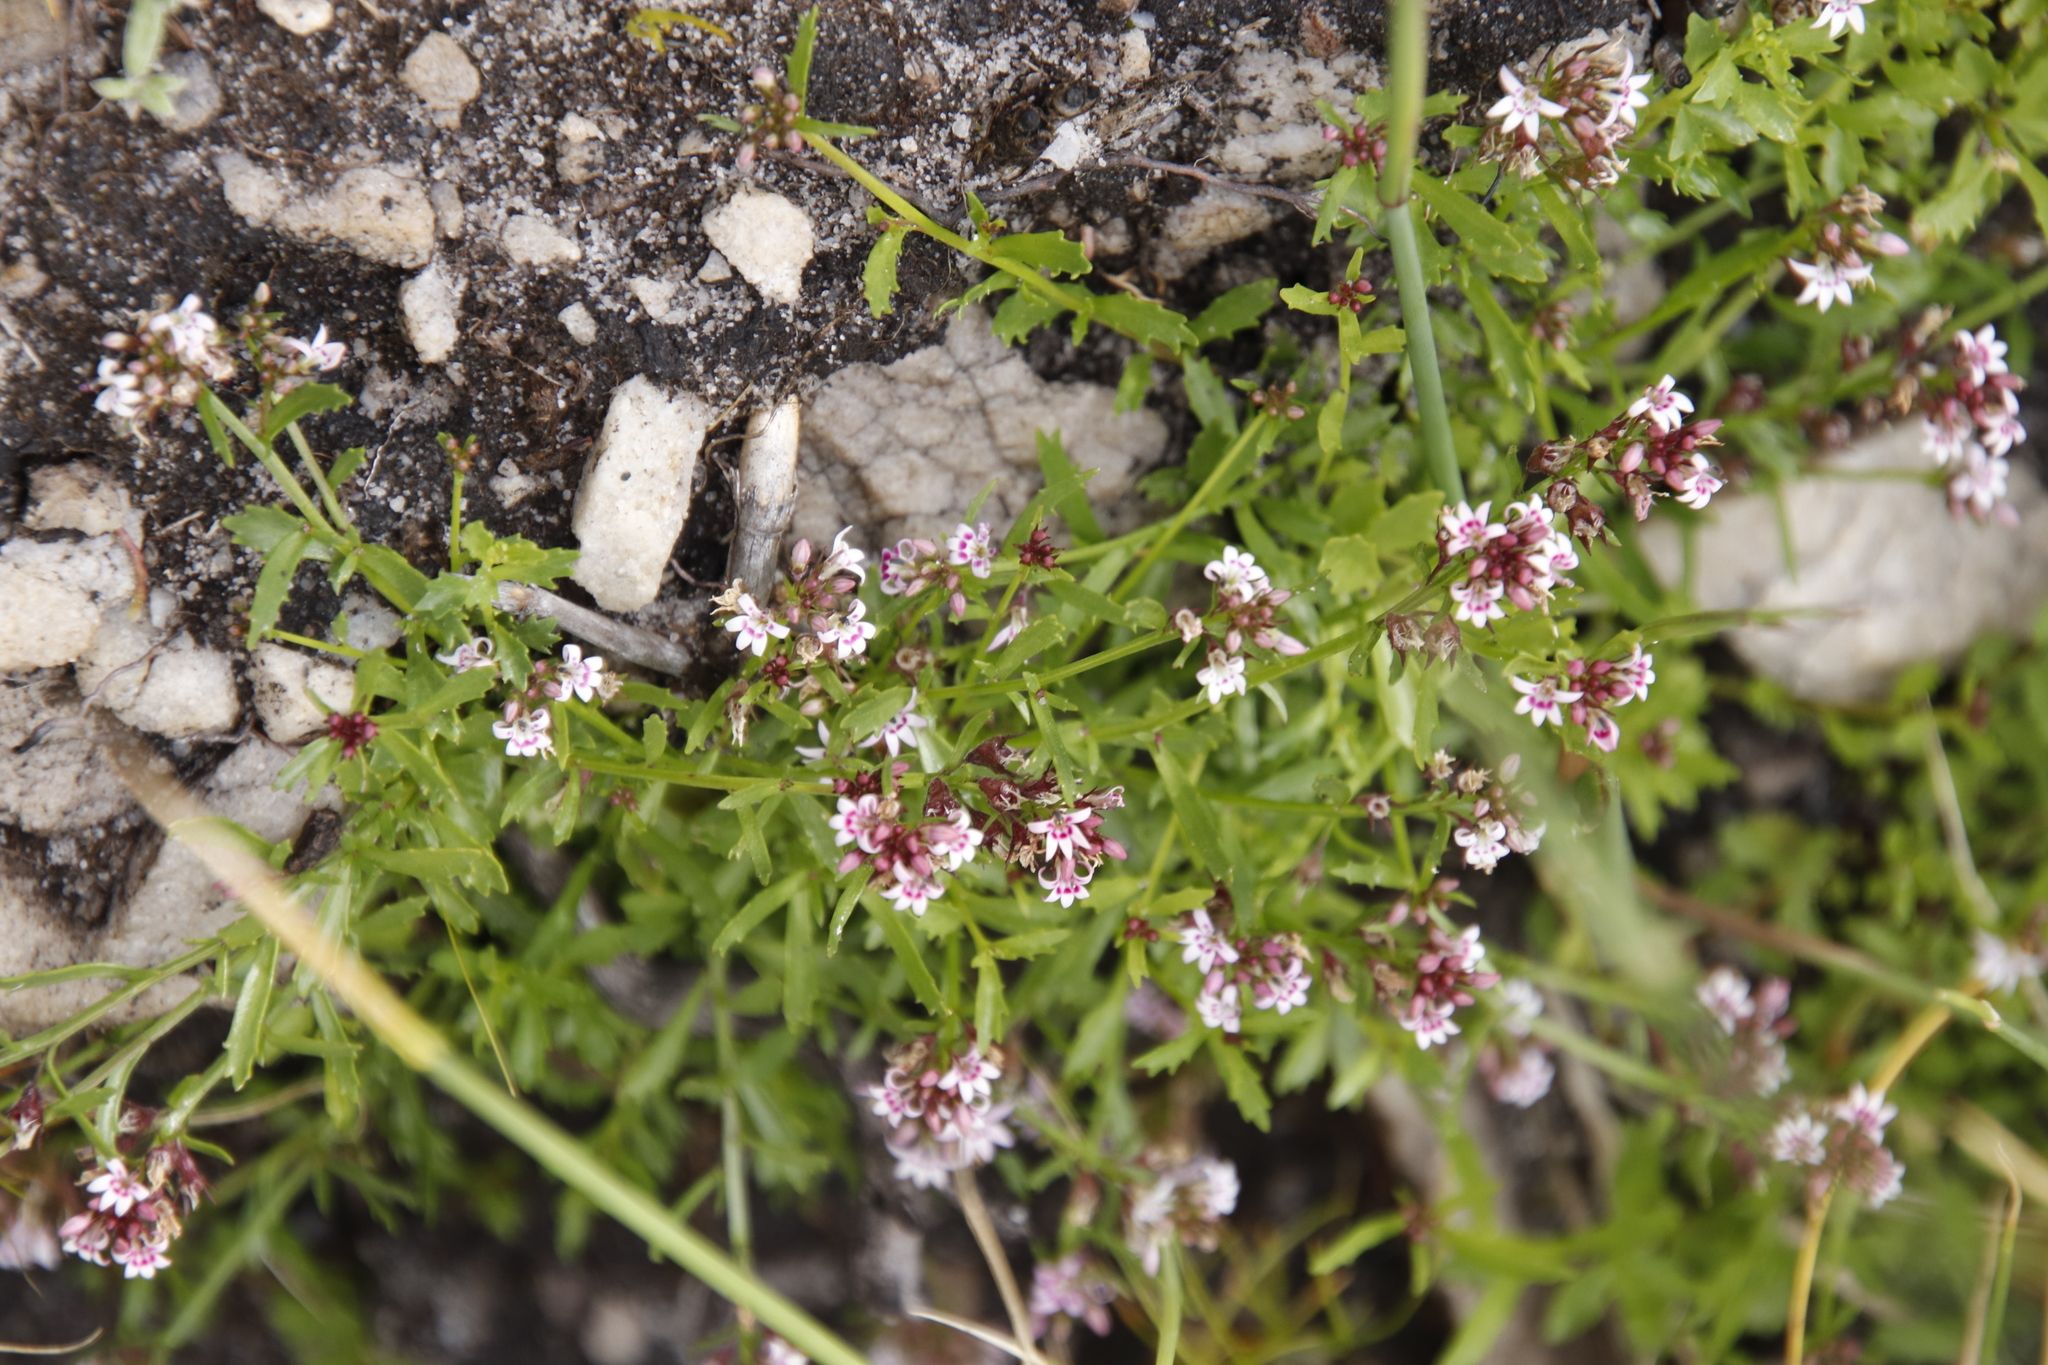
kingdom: Plantae
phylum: Tracheophyta
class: Magnoliopsida
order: Asterales
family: Campanulaceae
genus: Lobelia
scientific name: Lobelia jasionoides
